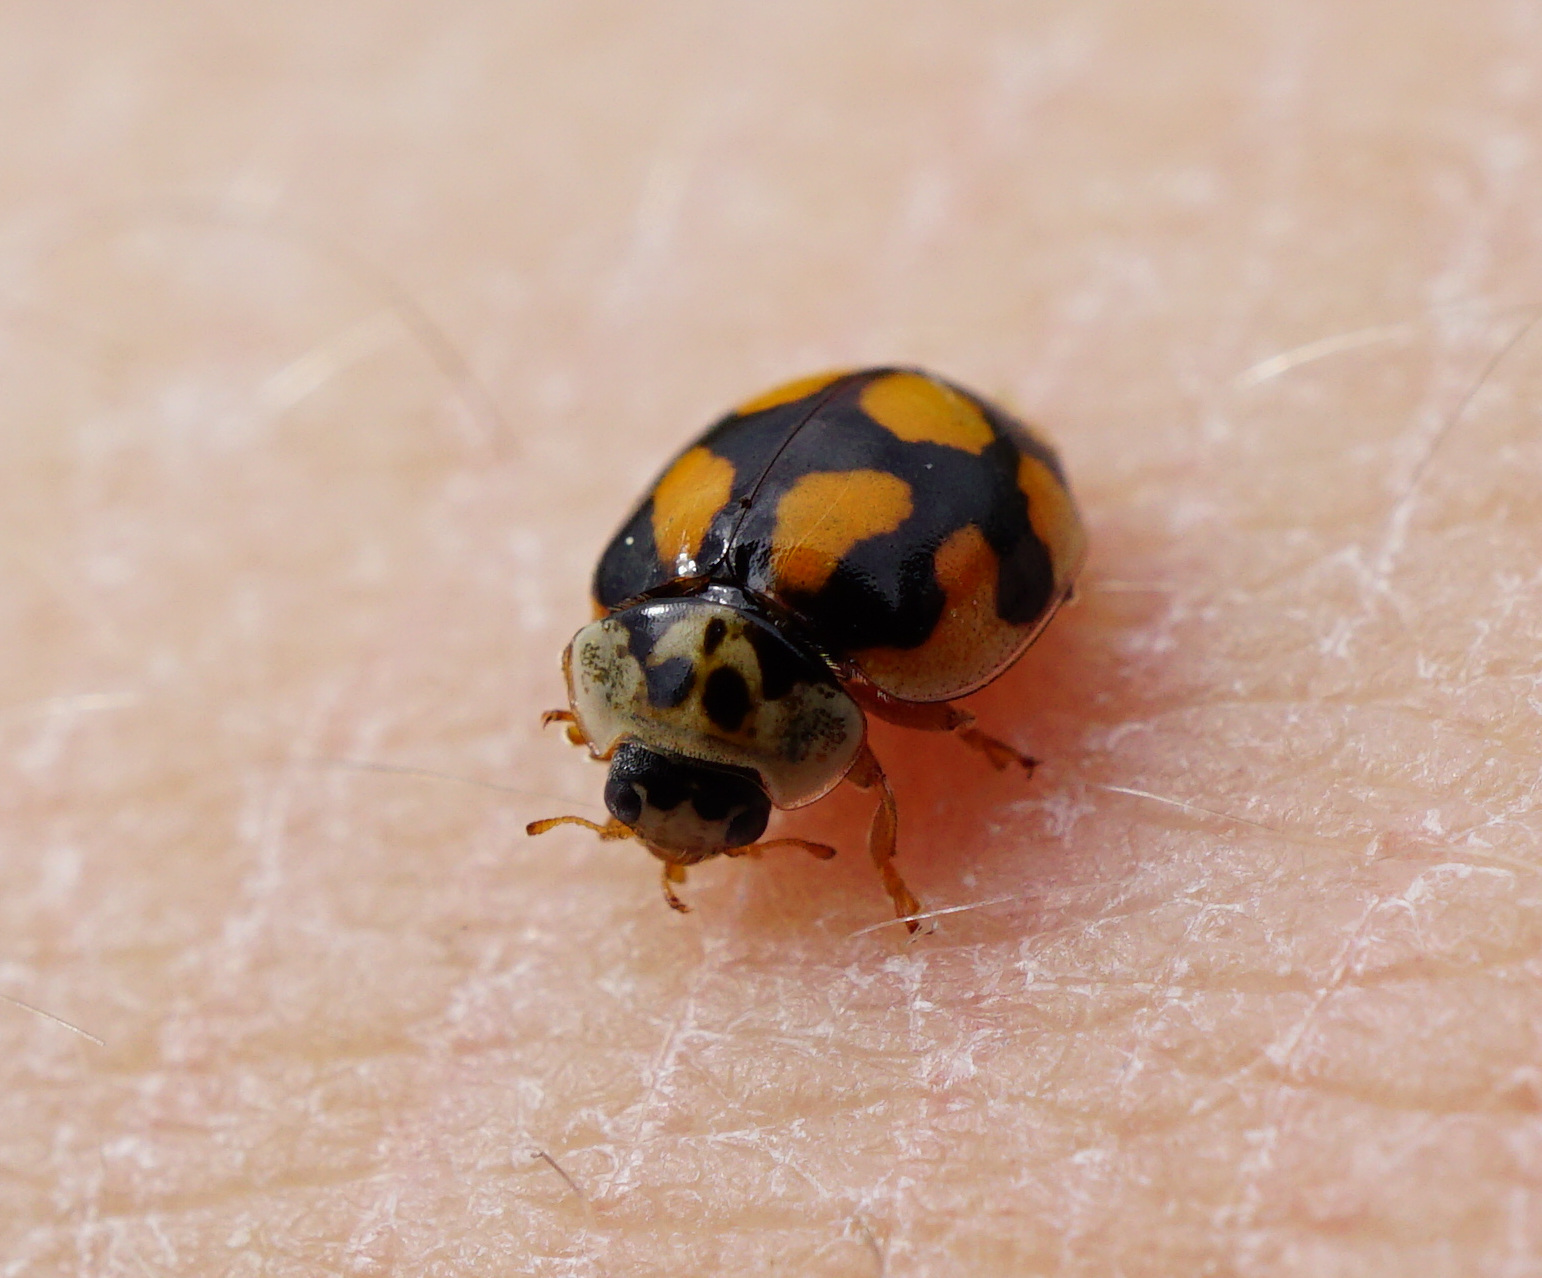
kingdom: Animalia
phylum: Arthropoda
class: Insecta
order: Coleoptera
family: Coccinellidae
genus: Adalia
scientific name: Adalia decempunctata
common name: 10-spot ladybird
